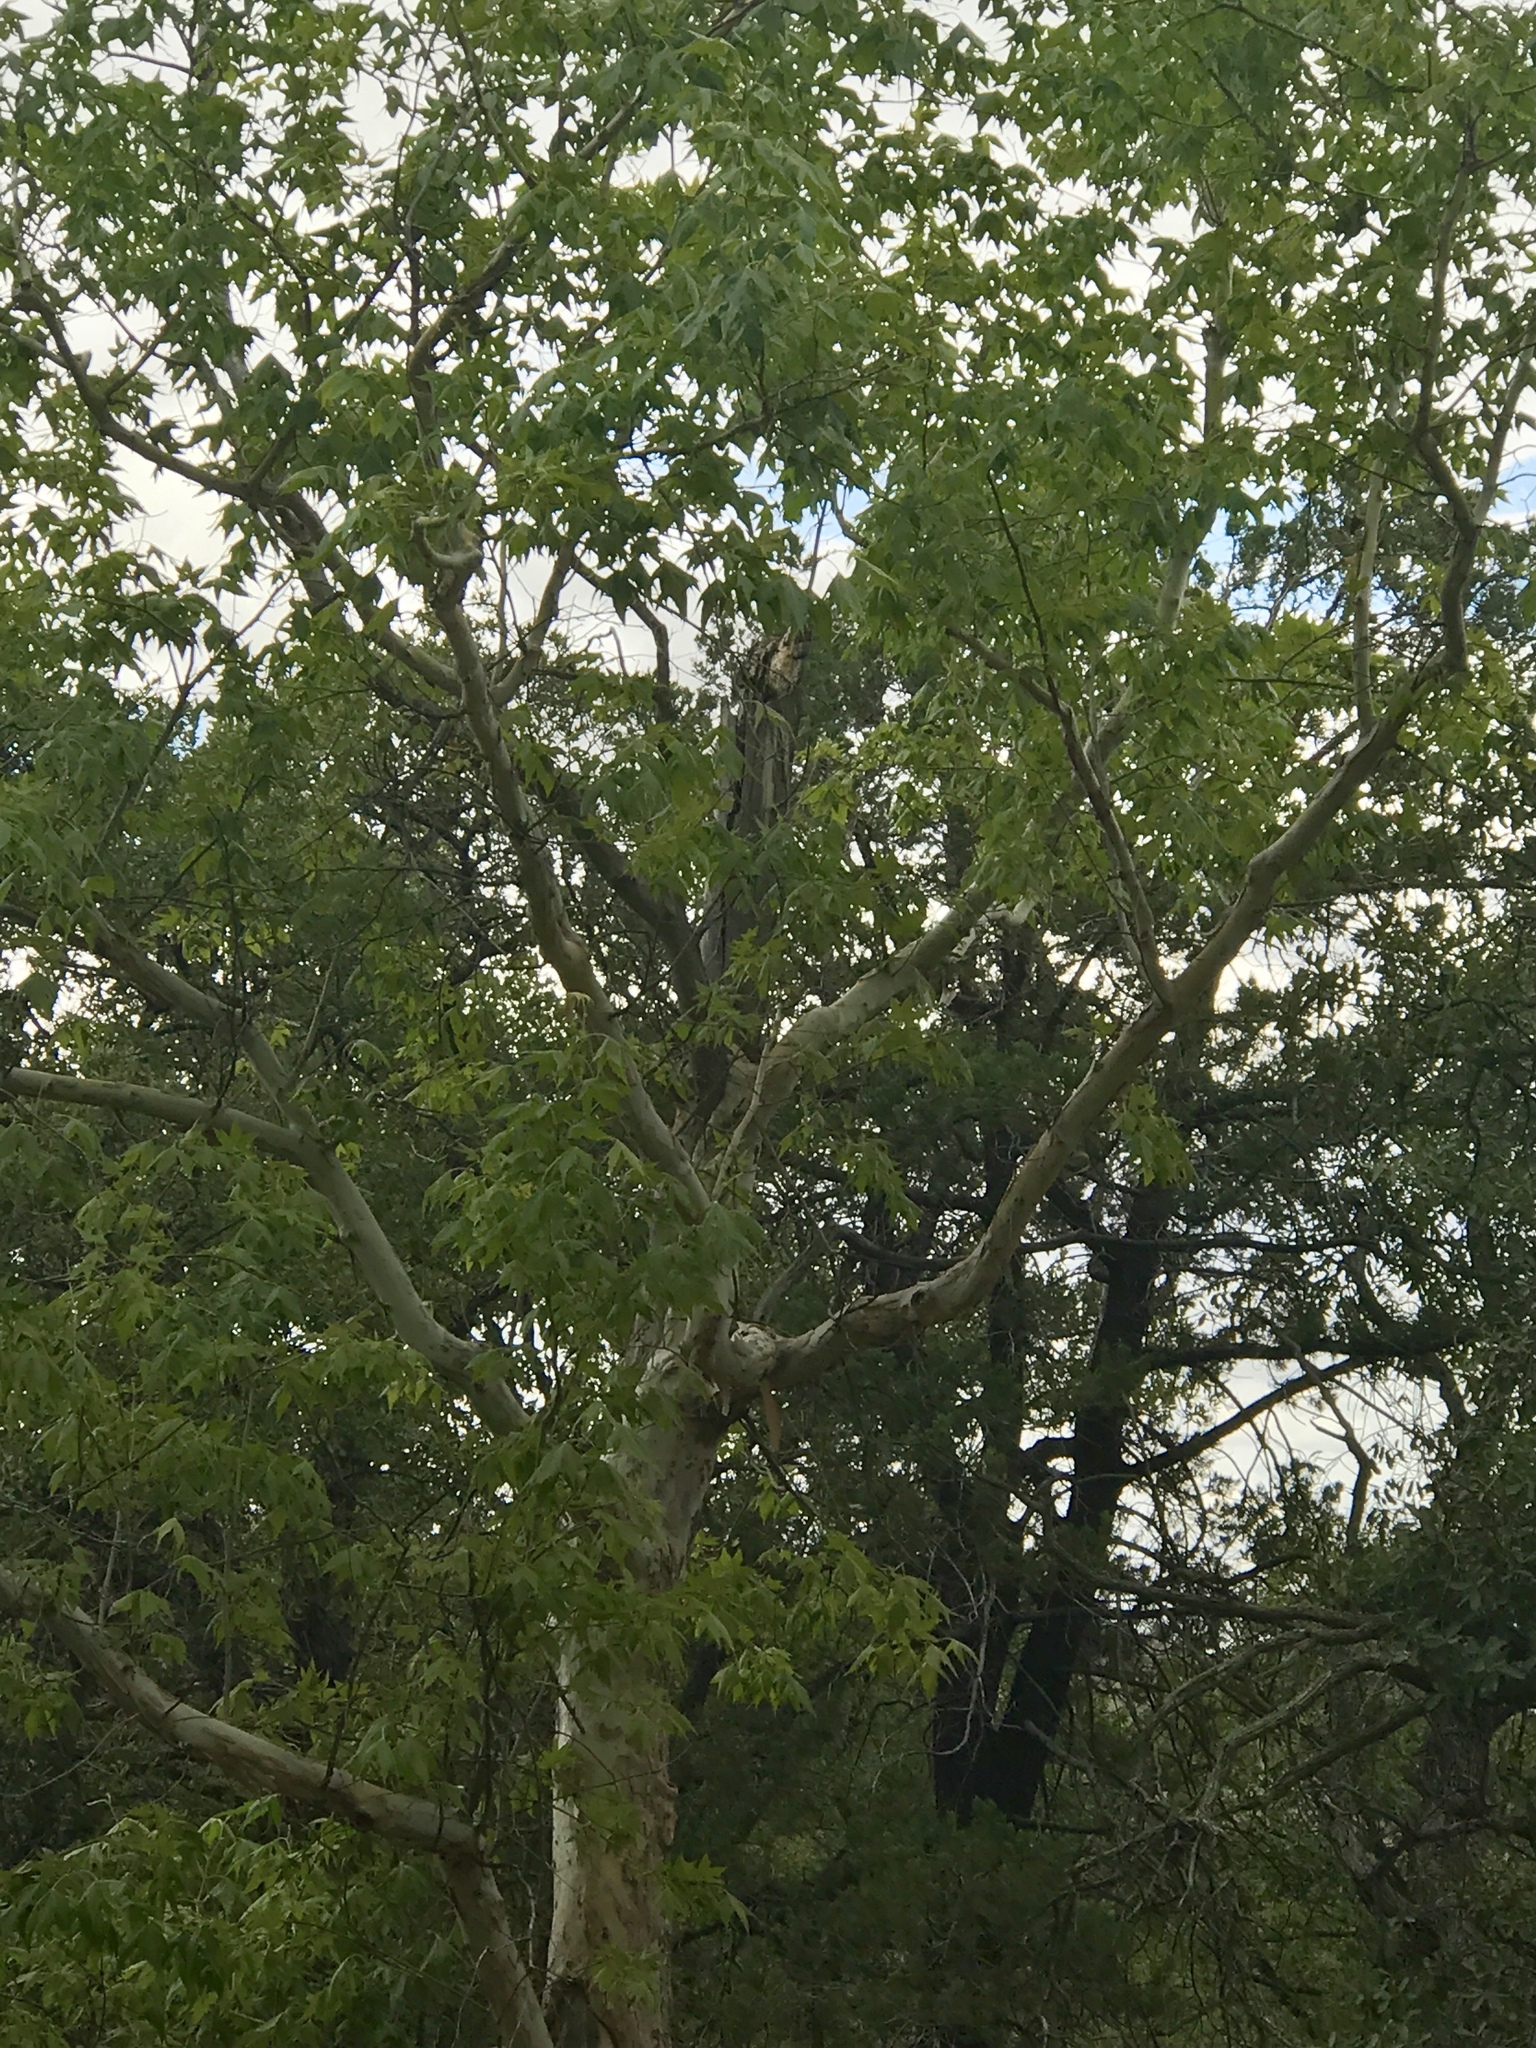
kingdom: Plantae
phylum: Tracheophyta
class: Magnoliopsida
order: Proteales
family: Platanaceae
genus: Platanus
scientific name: Platanus wrightii
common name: Arizona sycamore
